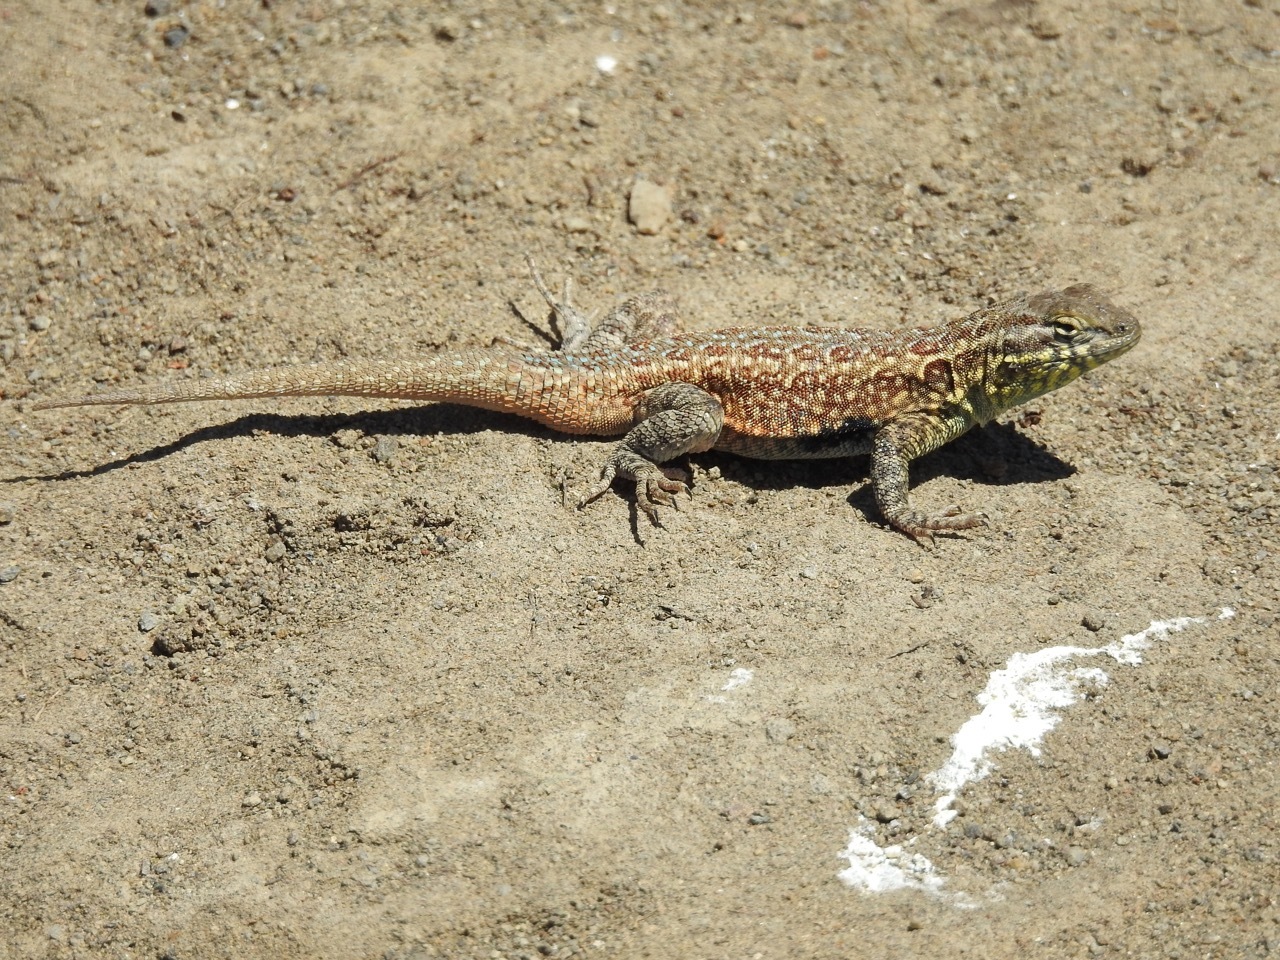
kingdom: Animalia
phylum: Chordata
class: Squamata
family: Phrynosomatidae
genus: Uta
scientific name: Uta stansburiana
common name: Side-blotched lizard
